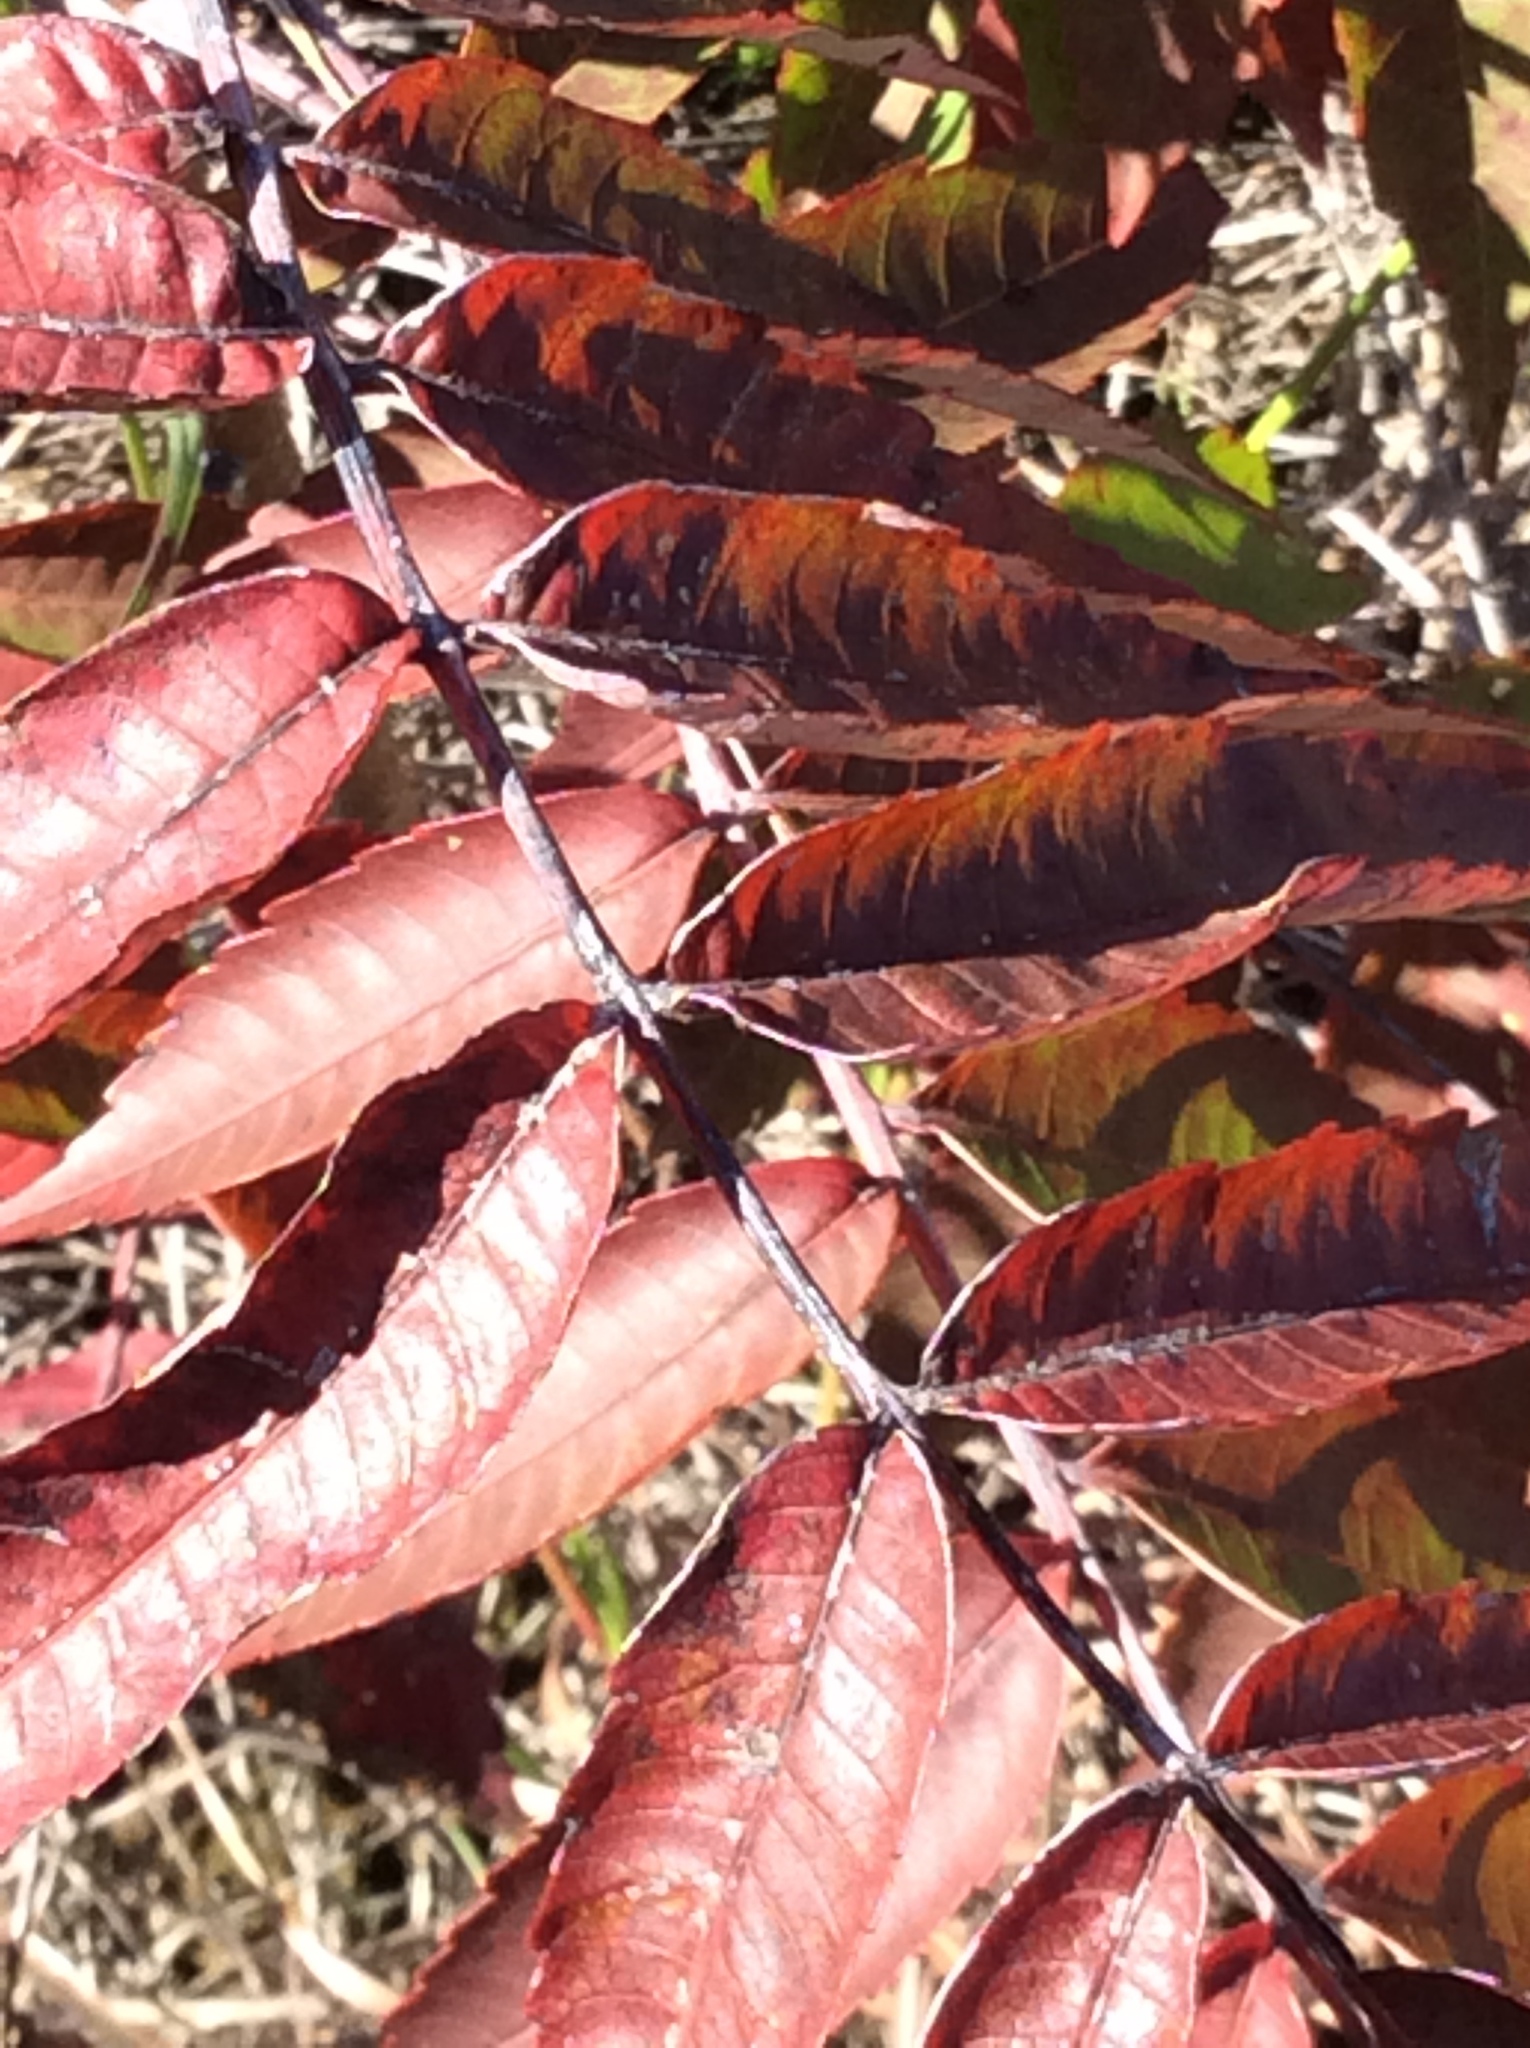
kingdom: Plantae
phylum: Tracheophyta
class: Magnoliopsida
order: Sapindales
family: Anacardiaceae
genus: Rhus
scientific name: Rhus glabra
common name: Scarlet sumac
